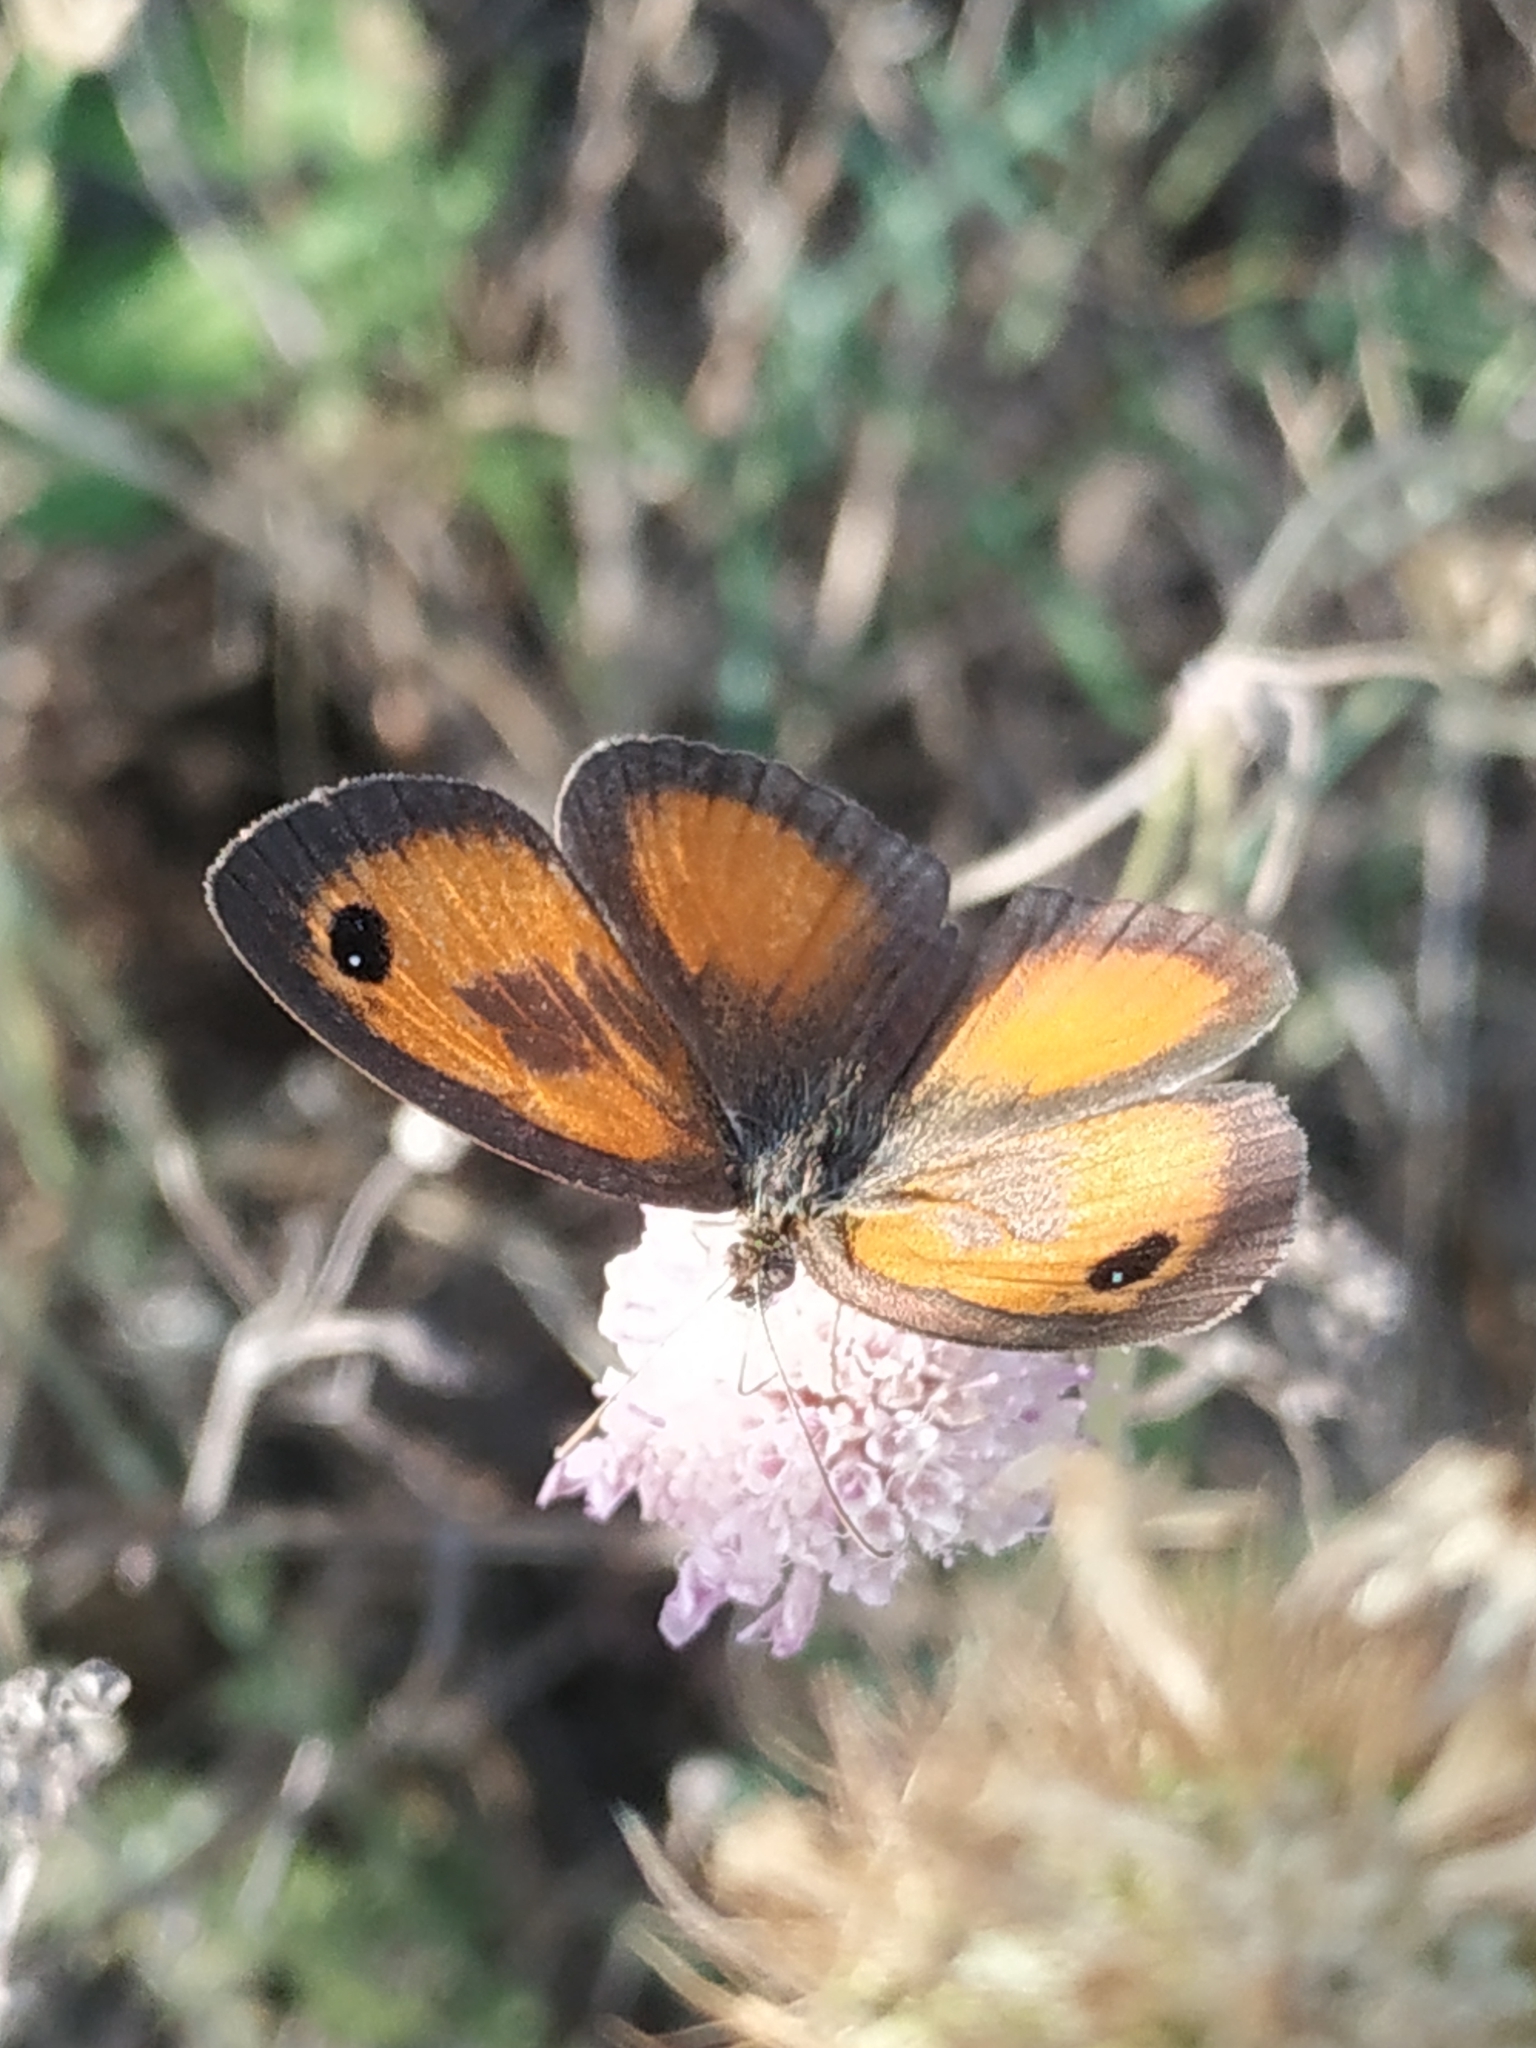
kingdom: Animalia
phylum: Arthropoda
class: Insecta
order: Lepidoptera
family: Nymphalidae
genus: Pyronia
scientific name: Pyronia cecilia
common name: Southern gatekeeper
